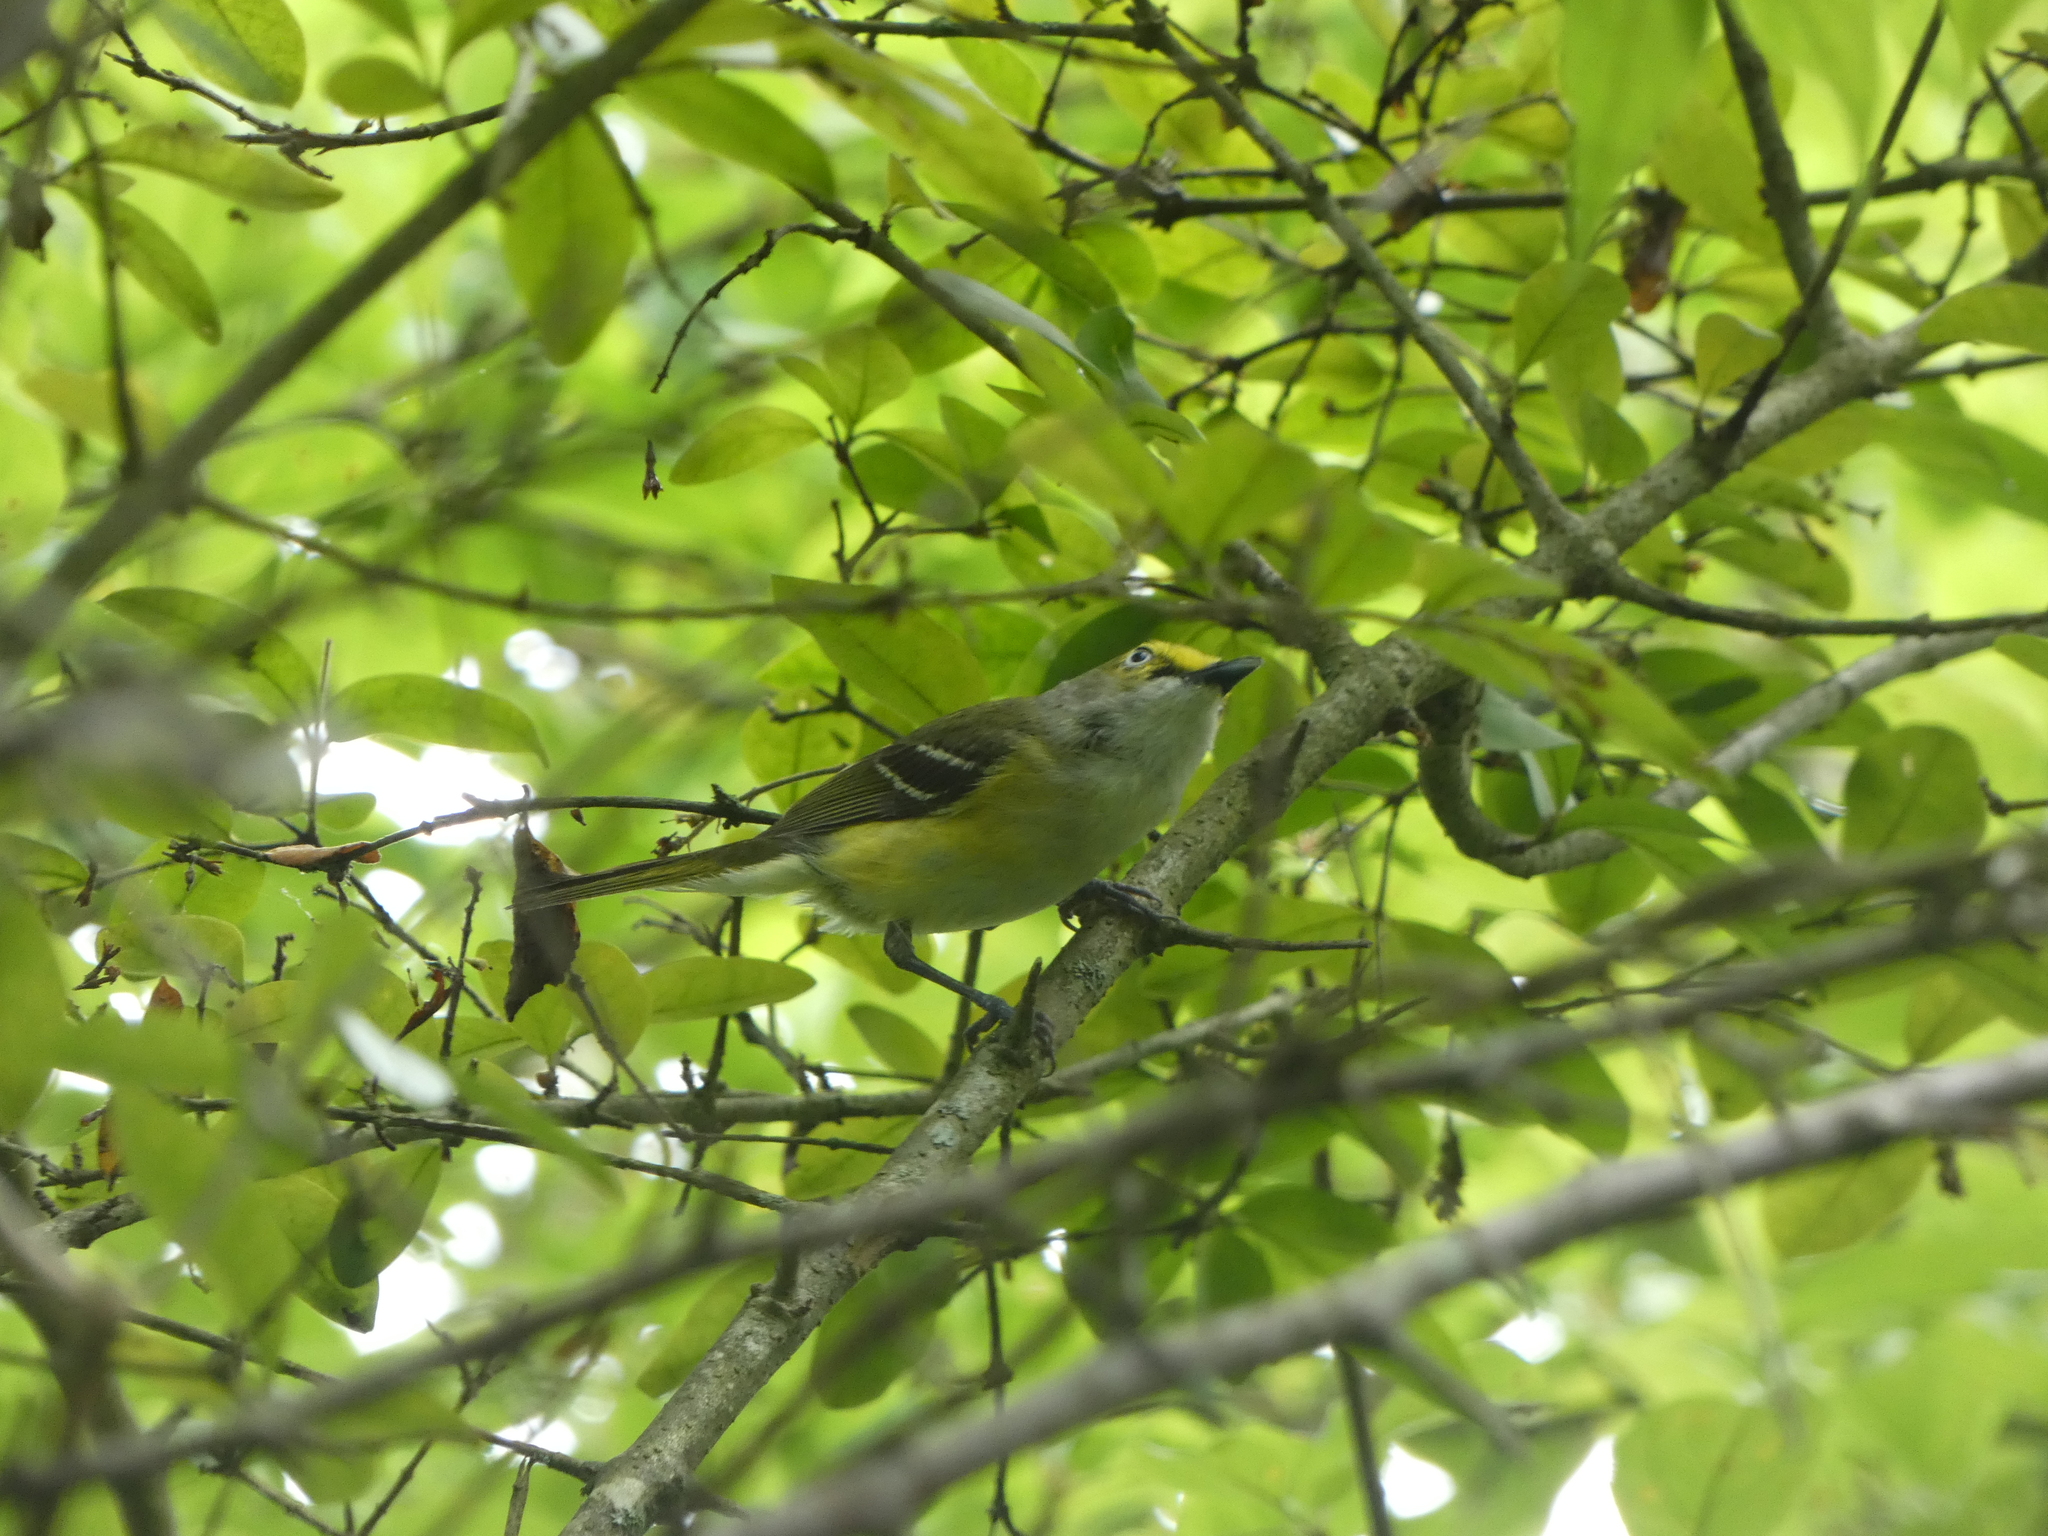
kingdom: Animalia
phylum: Chordata
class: Aves
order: Passeriformes
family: Vireonidae
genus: Vireo
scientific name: Vireo griseus
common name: White-eyed vireo
